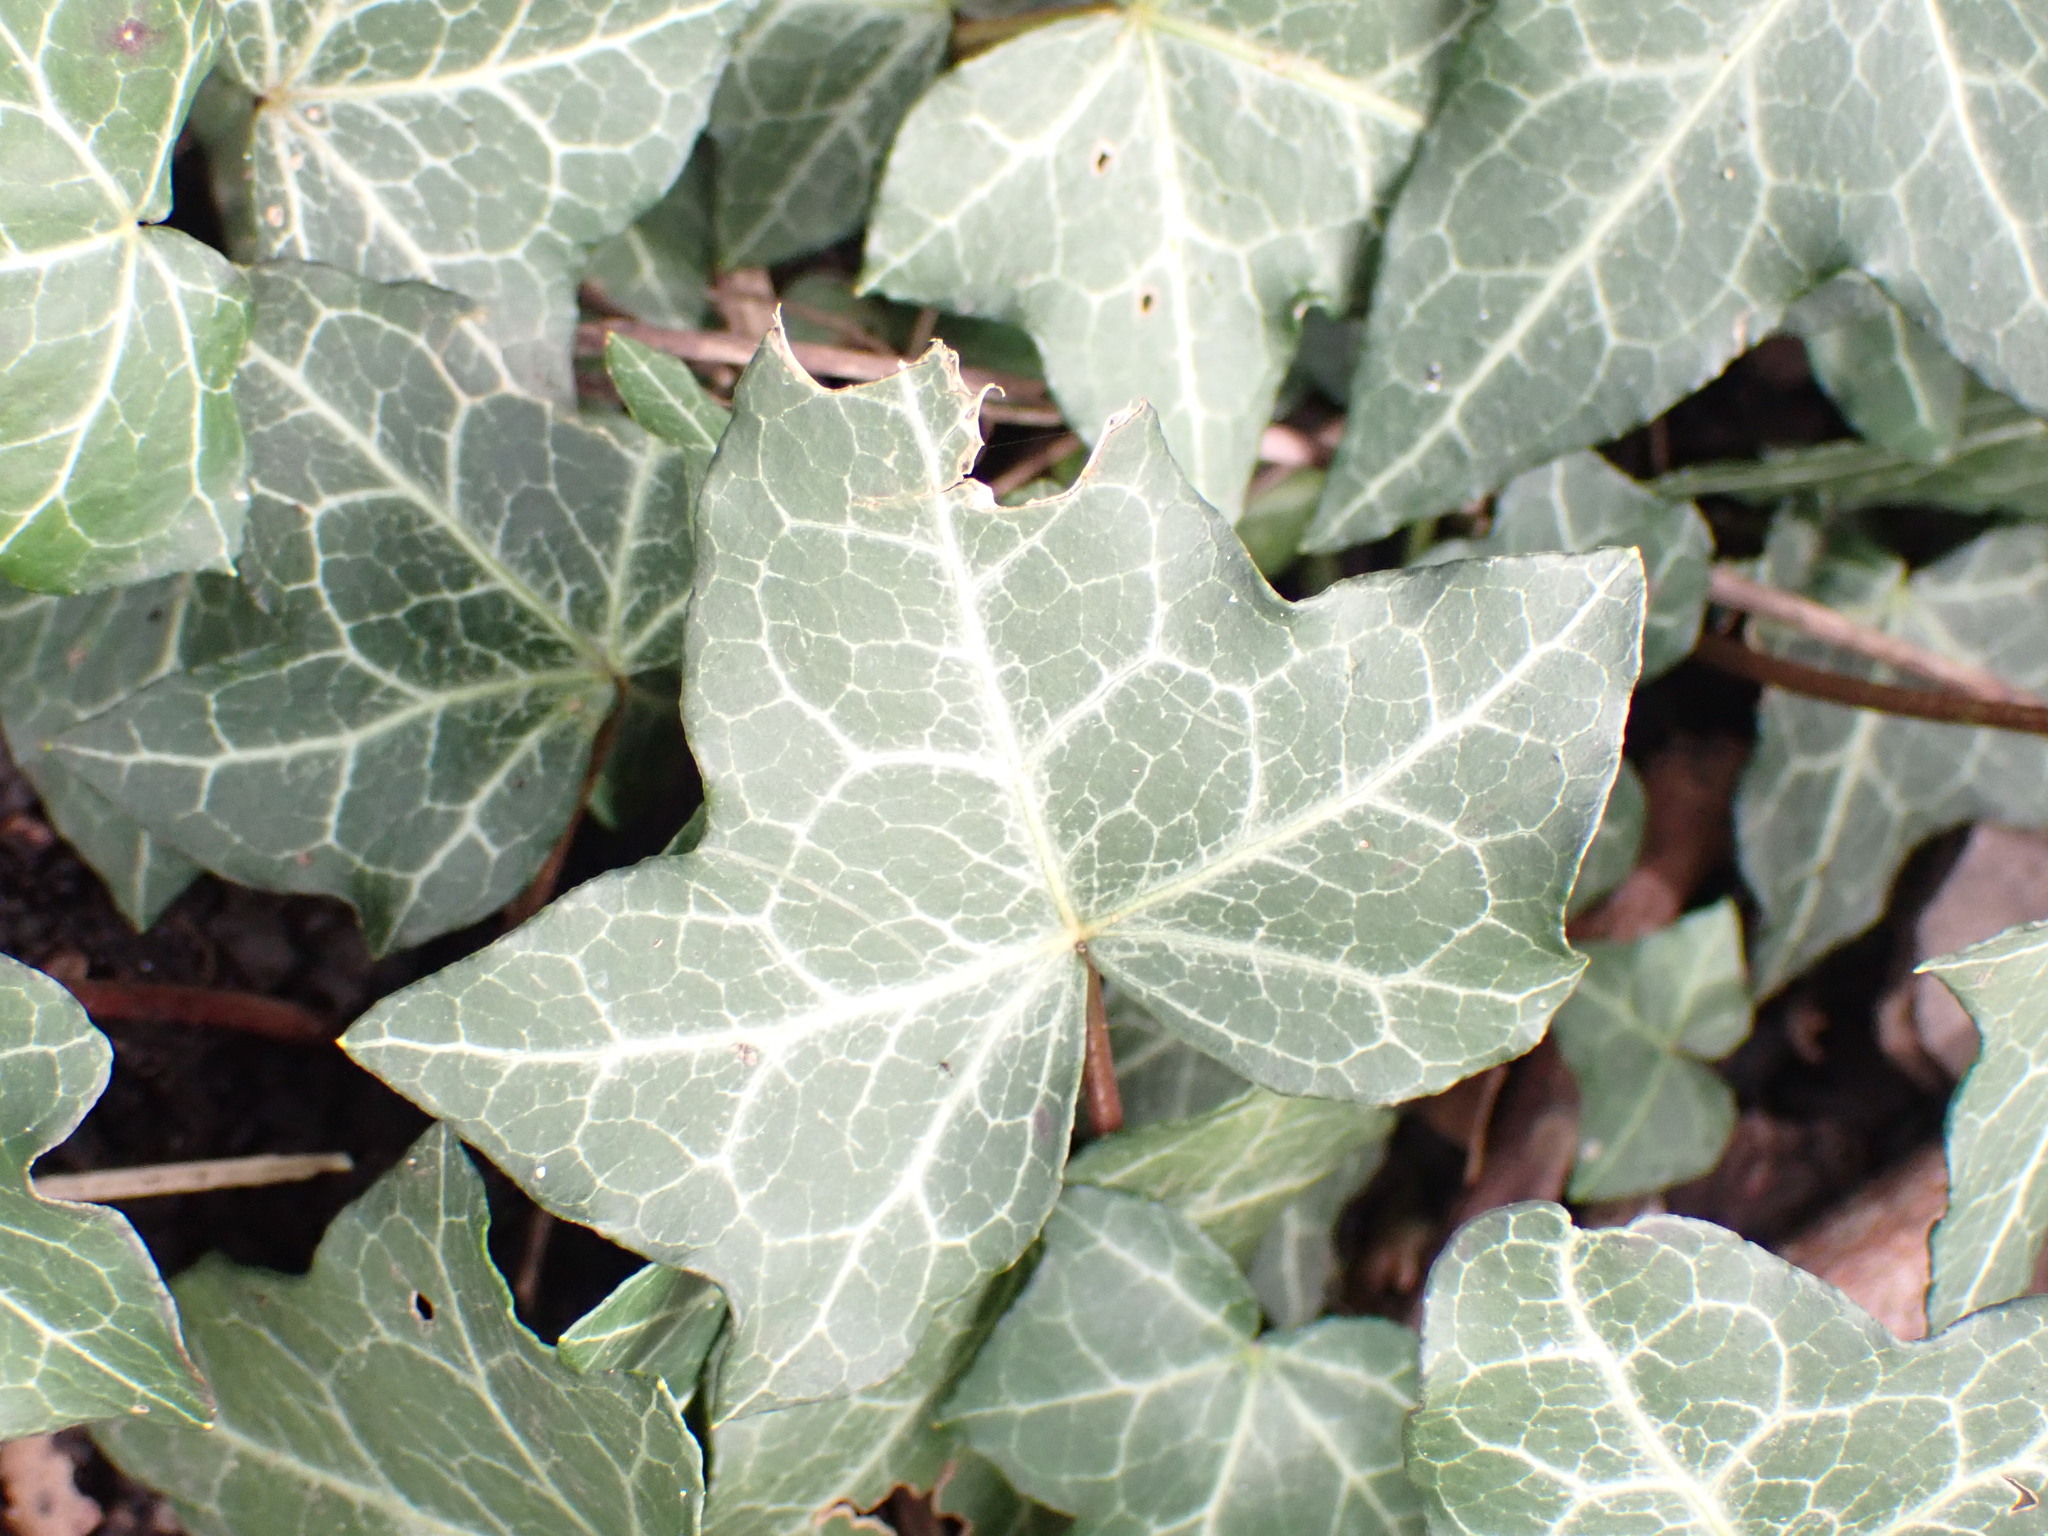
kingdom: Plantae
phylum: Tracheophyta
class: Magnoliopsida
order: Apiales
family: Araliaceae
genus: Hedera
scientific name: Hedera helix
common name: Ivy
